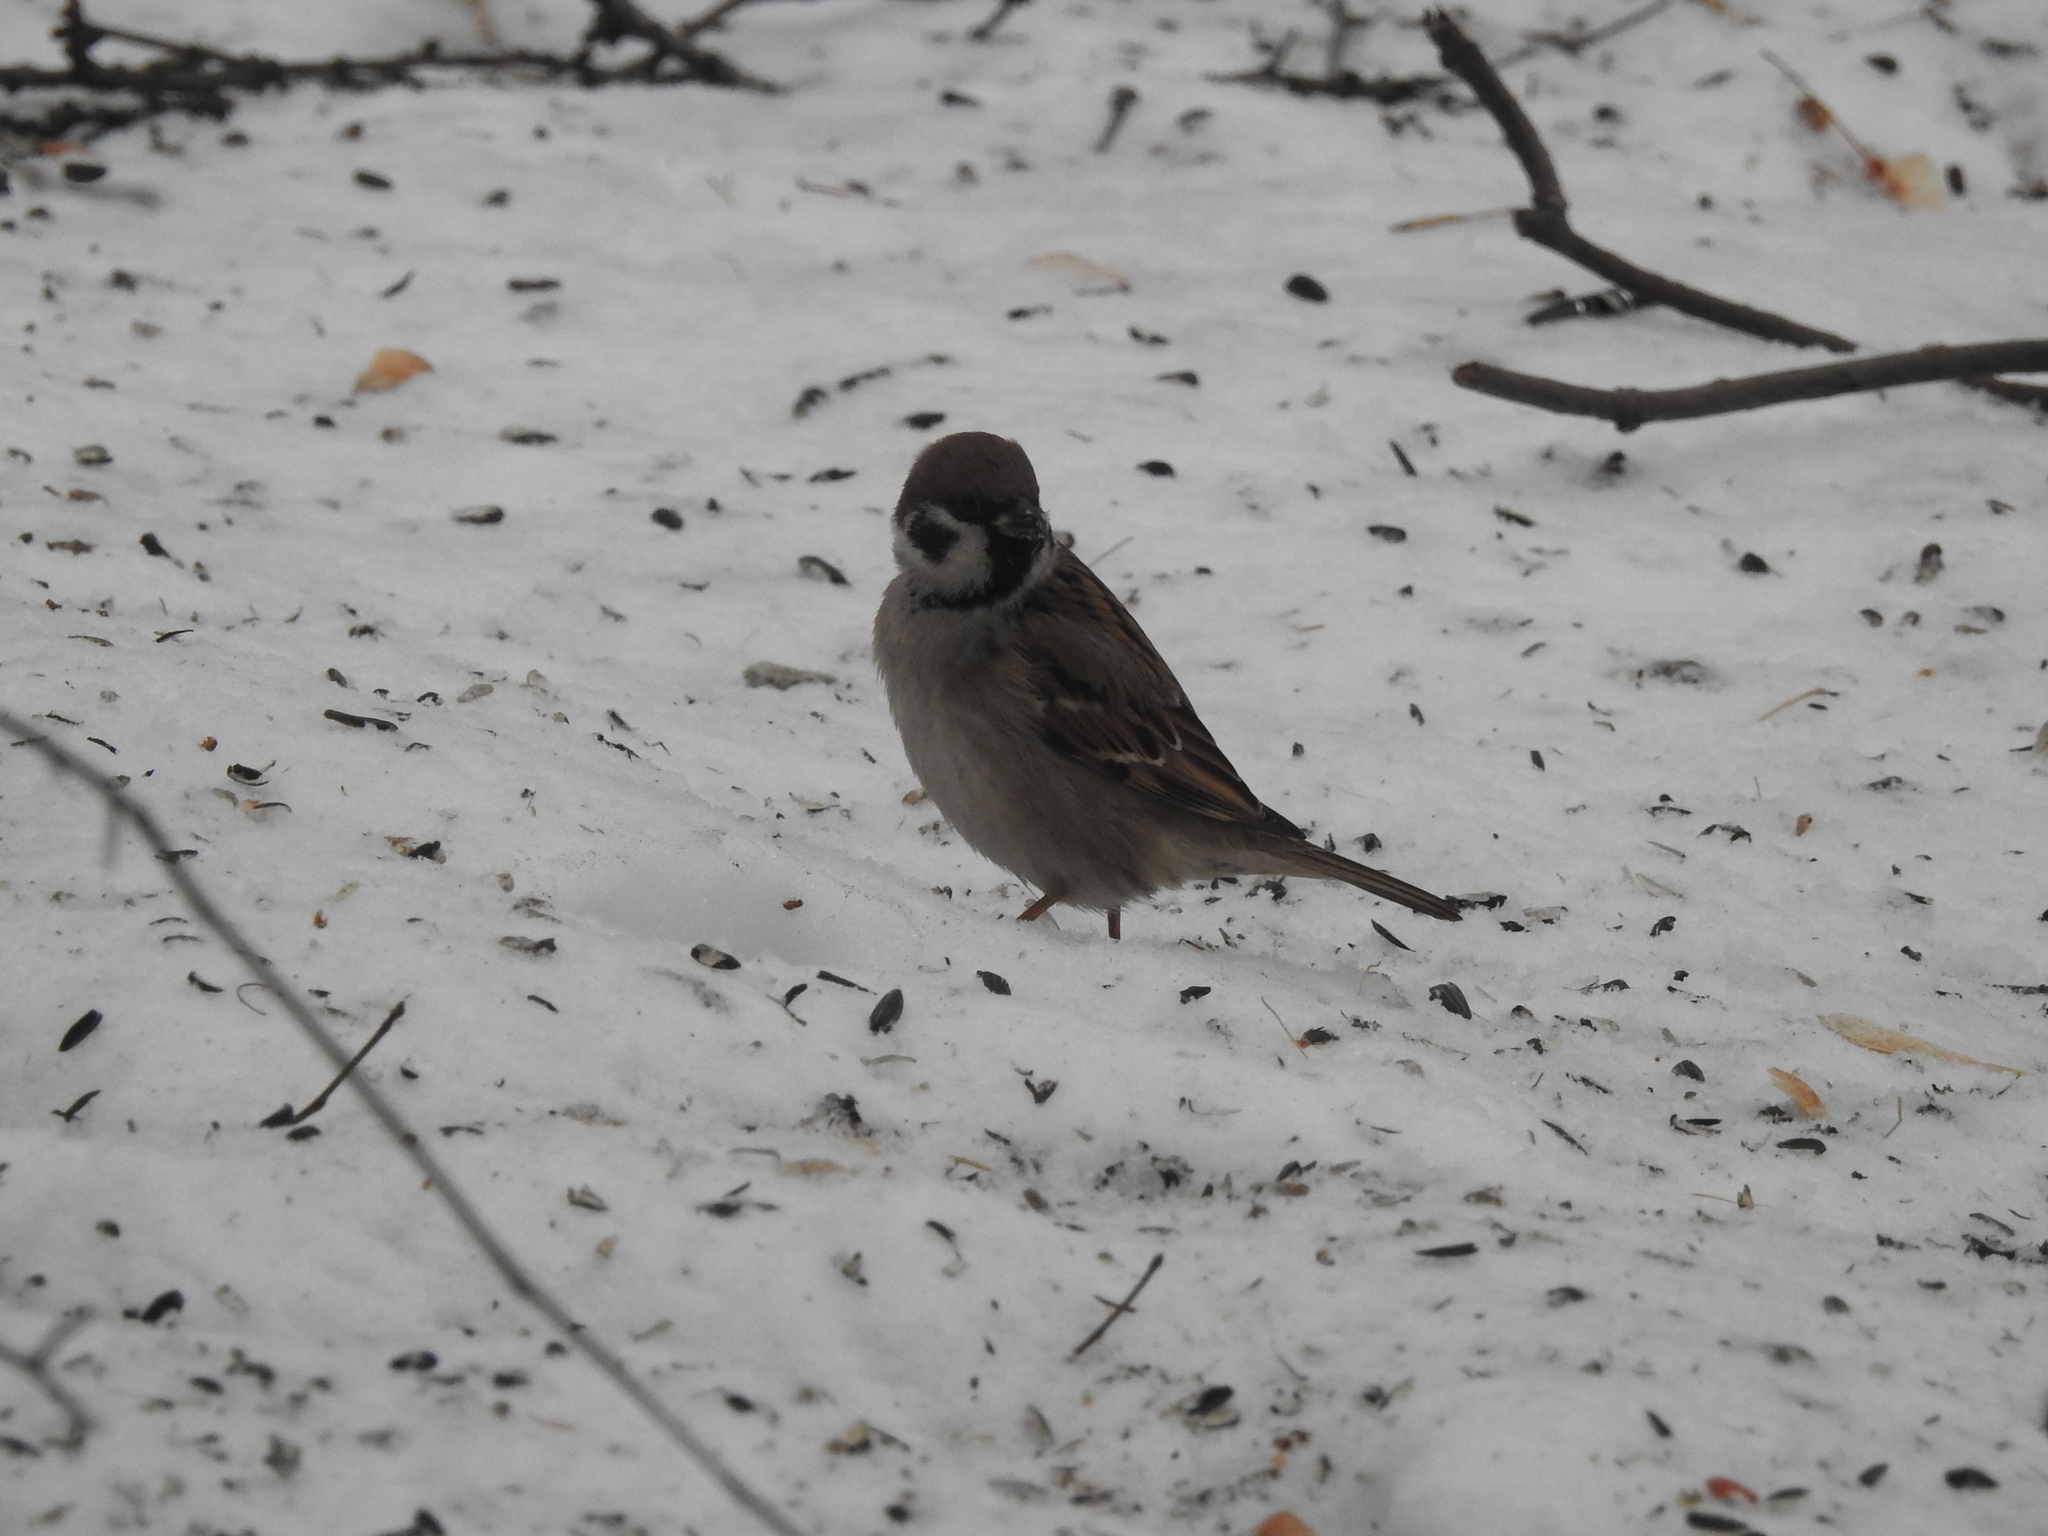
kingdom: Animalia
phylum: Chordata
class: Aves
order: Passeriformes
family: Passeridae
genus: Passer
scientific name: Passer montanus
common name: Eurasian tree sparrow
